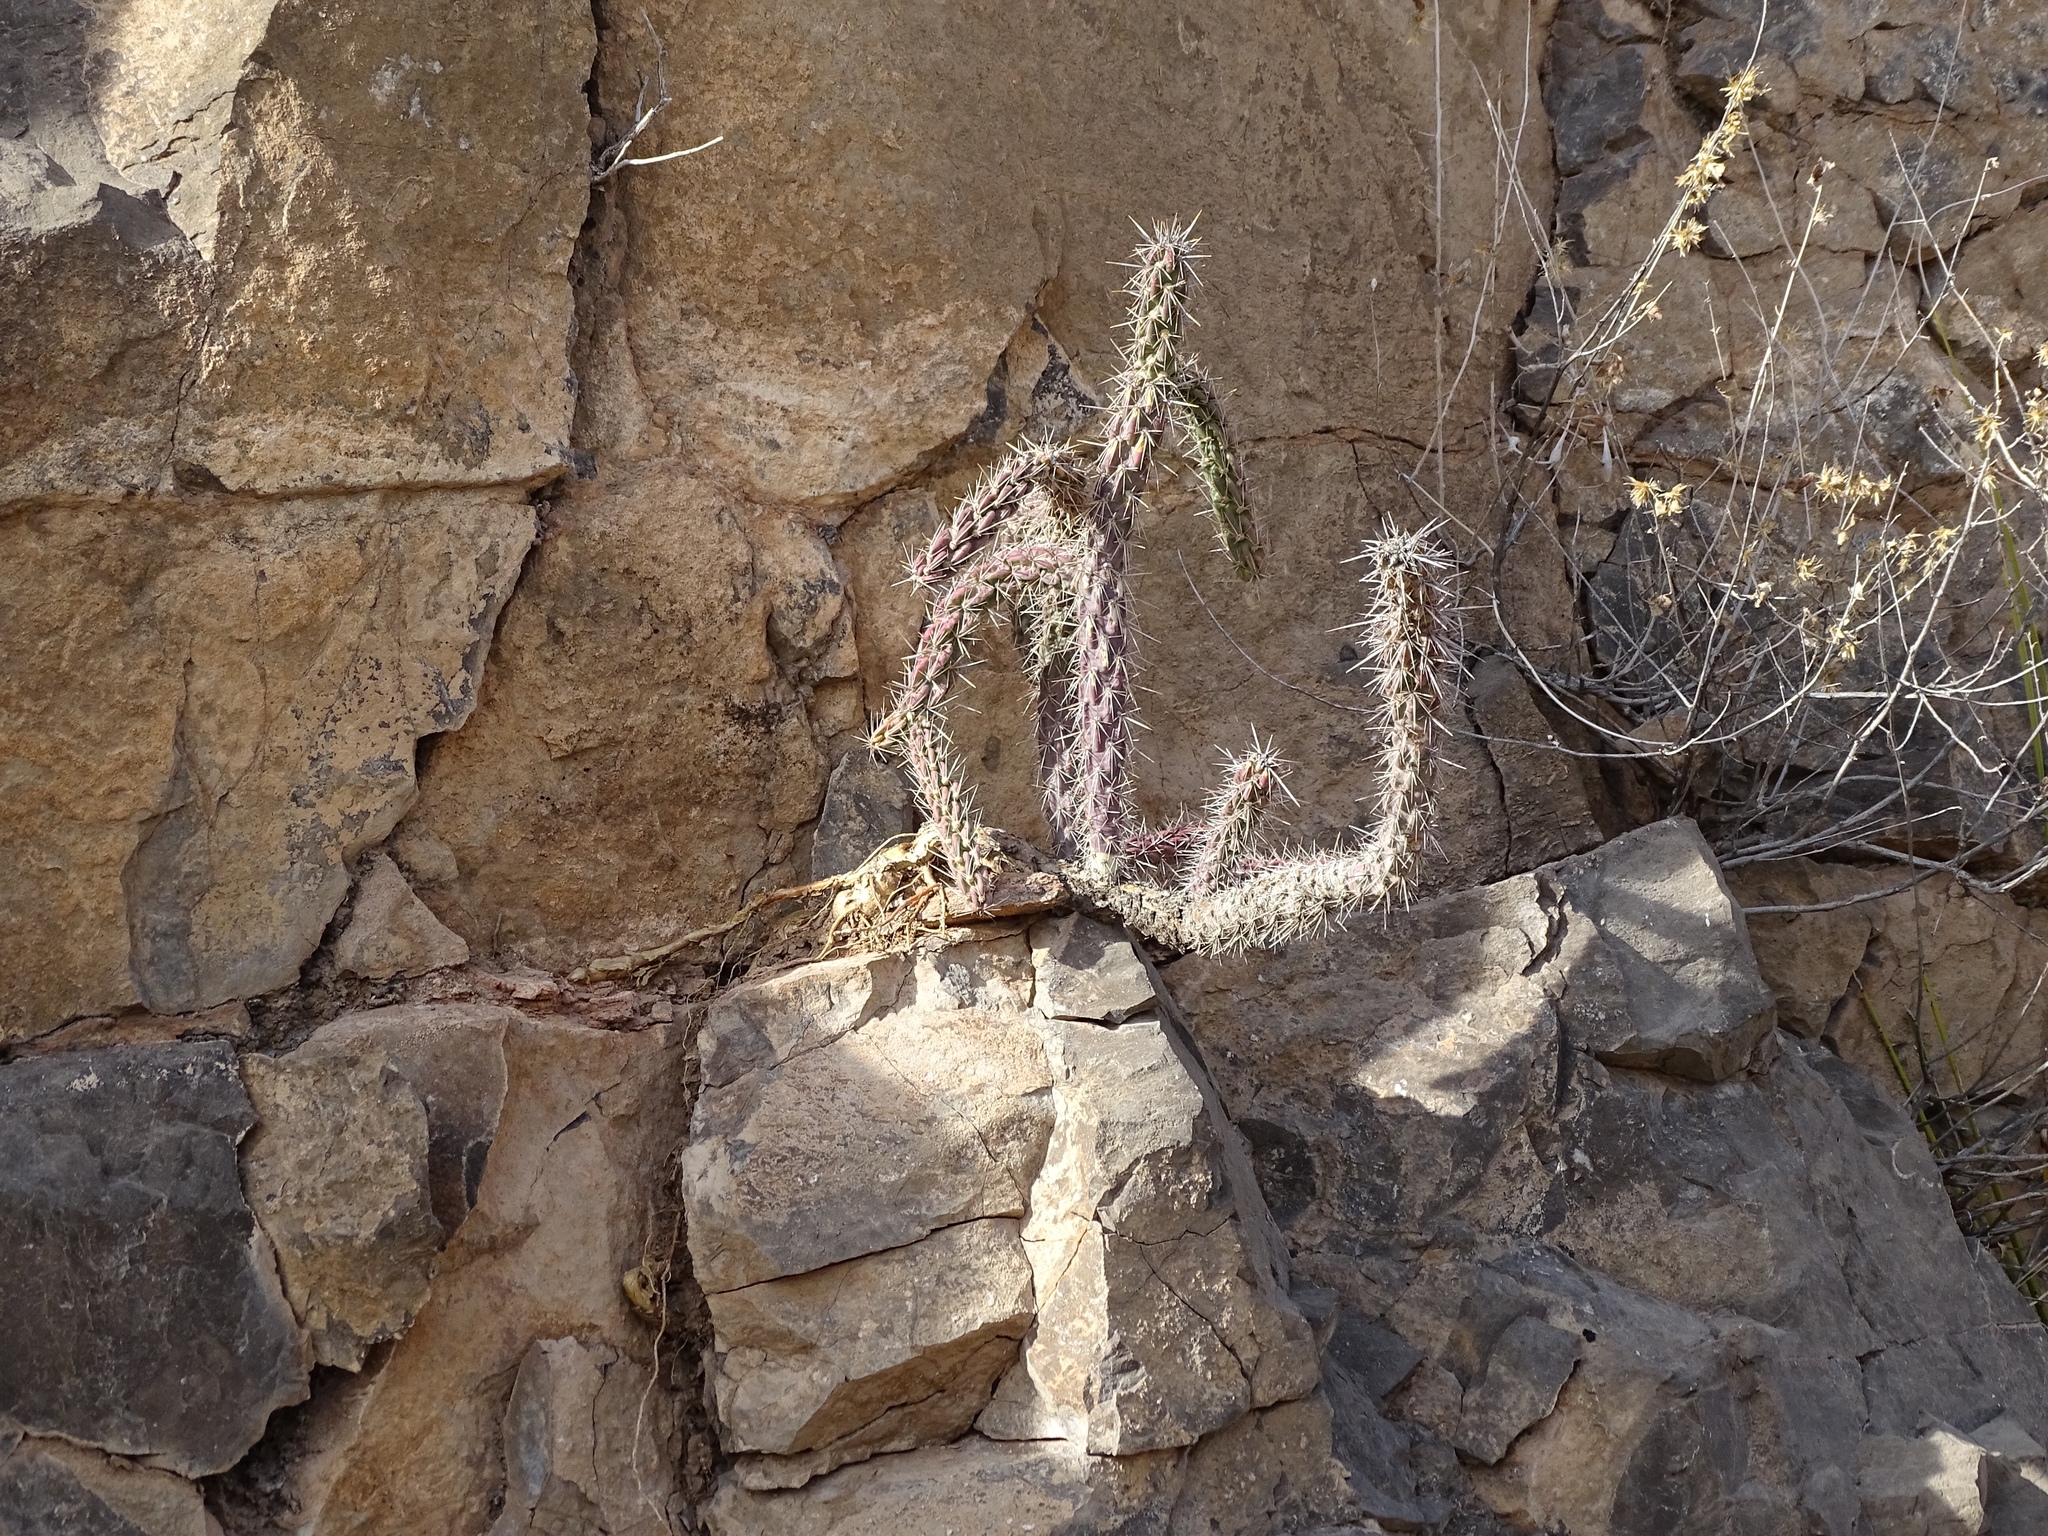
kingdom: Plantae
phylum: Tracheophyta
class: Magnoliopsida
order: Caryophyllales
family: Cactaceae
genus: Cylindropuntia
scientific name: Cylindropuntia imbricata
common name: Candelabrum cactus
